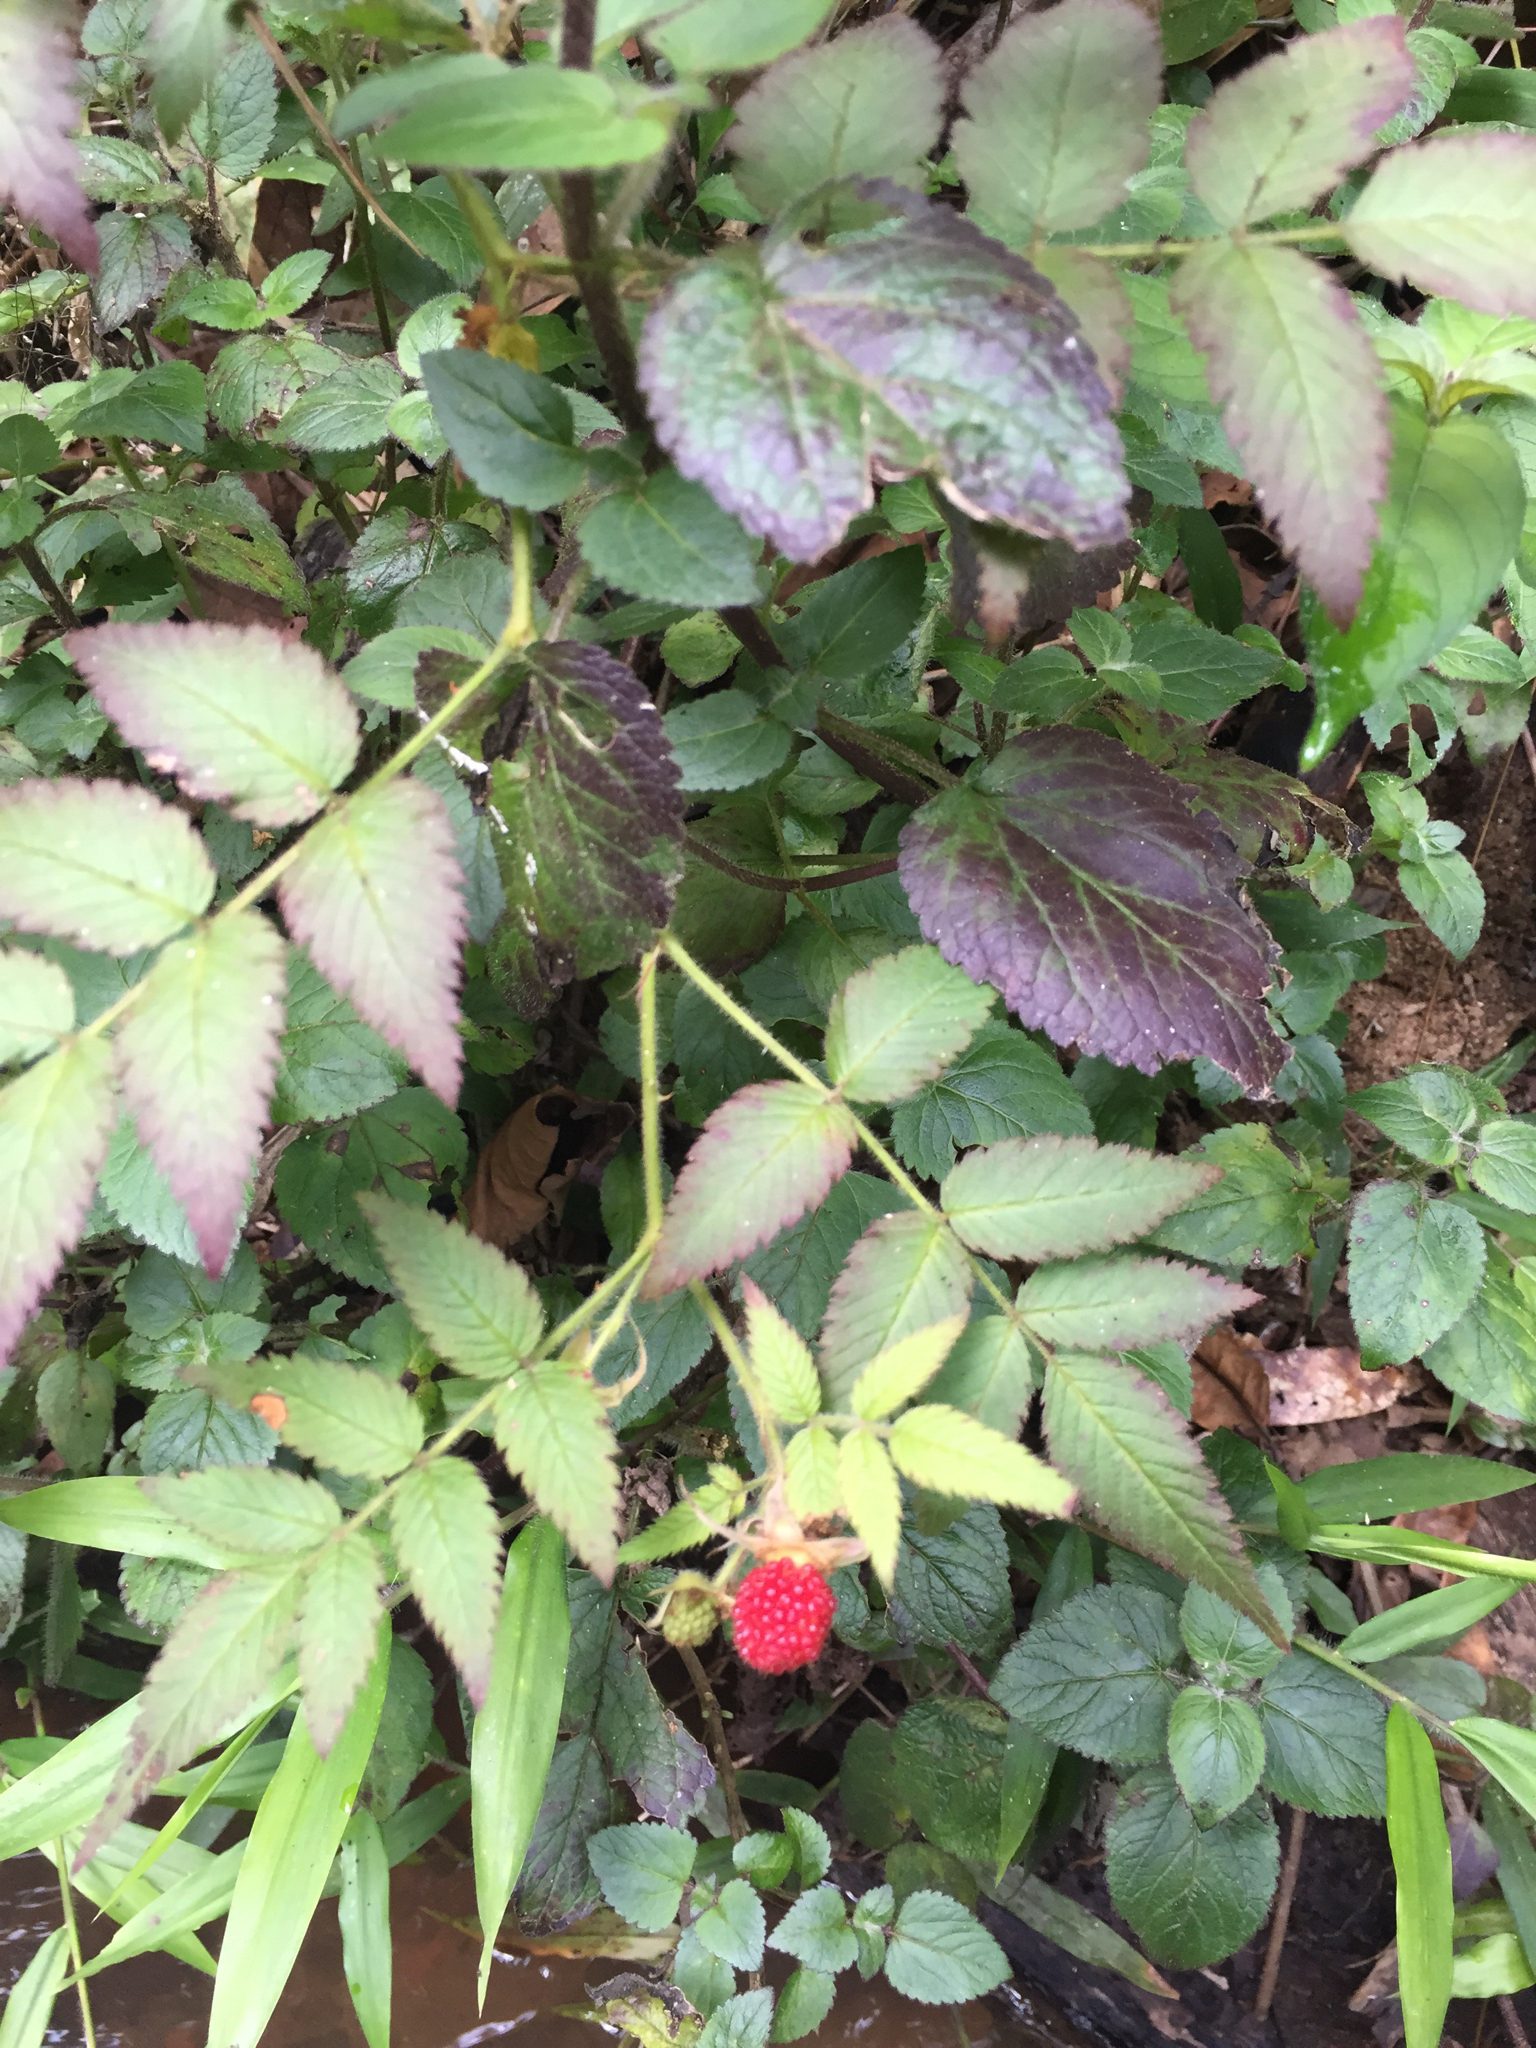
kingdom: Plantae
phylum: Tracheophyta
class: Magnoliopsida
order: Rosales
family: Rosaceae
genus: Rubus
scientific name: Rubus rosifolius
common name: Roseleaf raspberry
